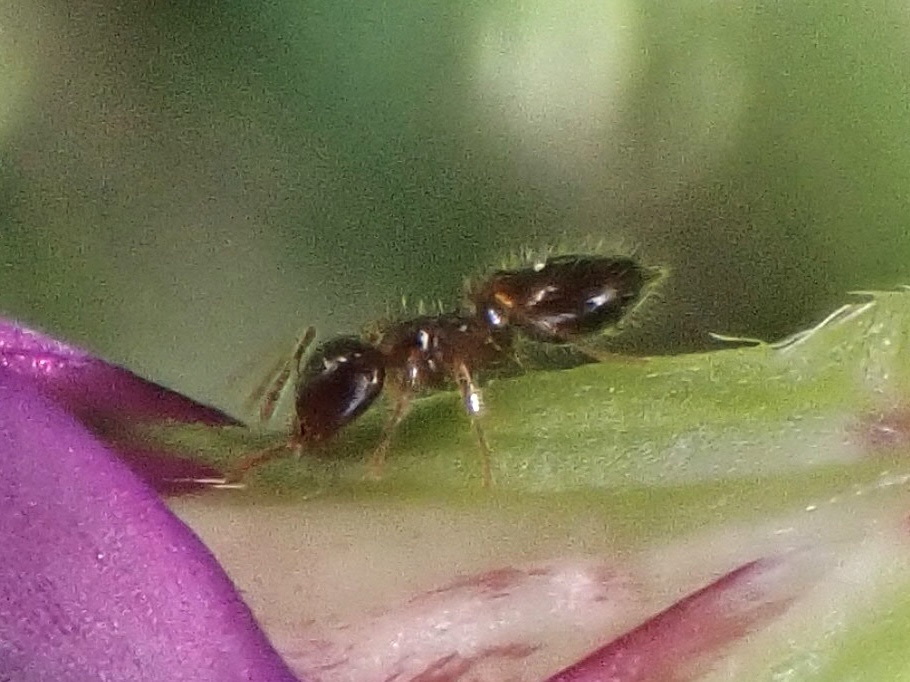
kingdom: Animalia
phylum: Arthropoda
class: Insecta
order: Hymenoptera
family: Formicidae
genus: Crematogaster
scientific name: Crematogaster sordidula
